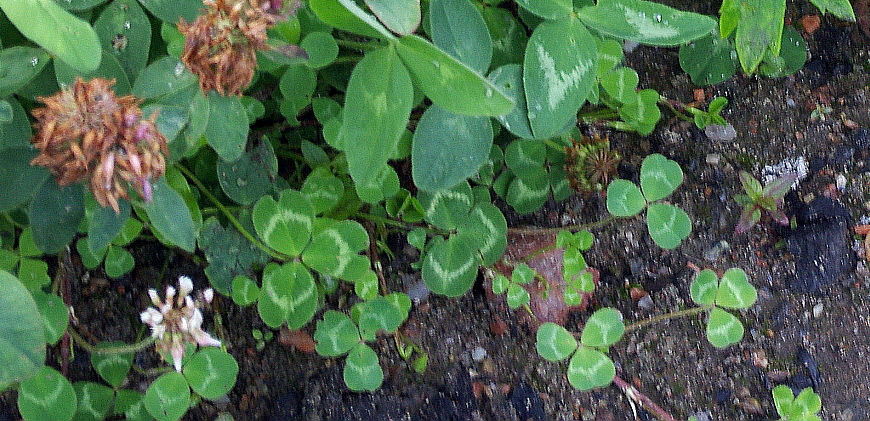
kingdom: Plantae
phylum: Tracheophyta
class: Magnoliopsida
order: Fabales
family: Fabaceae
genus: Trifolium
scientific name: Trifolium repens
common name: White clover
